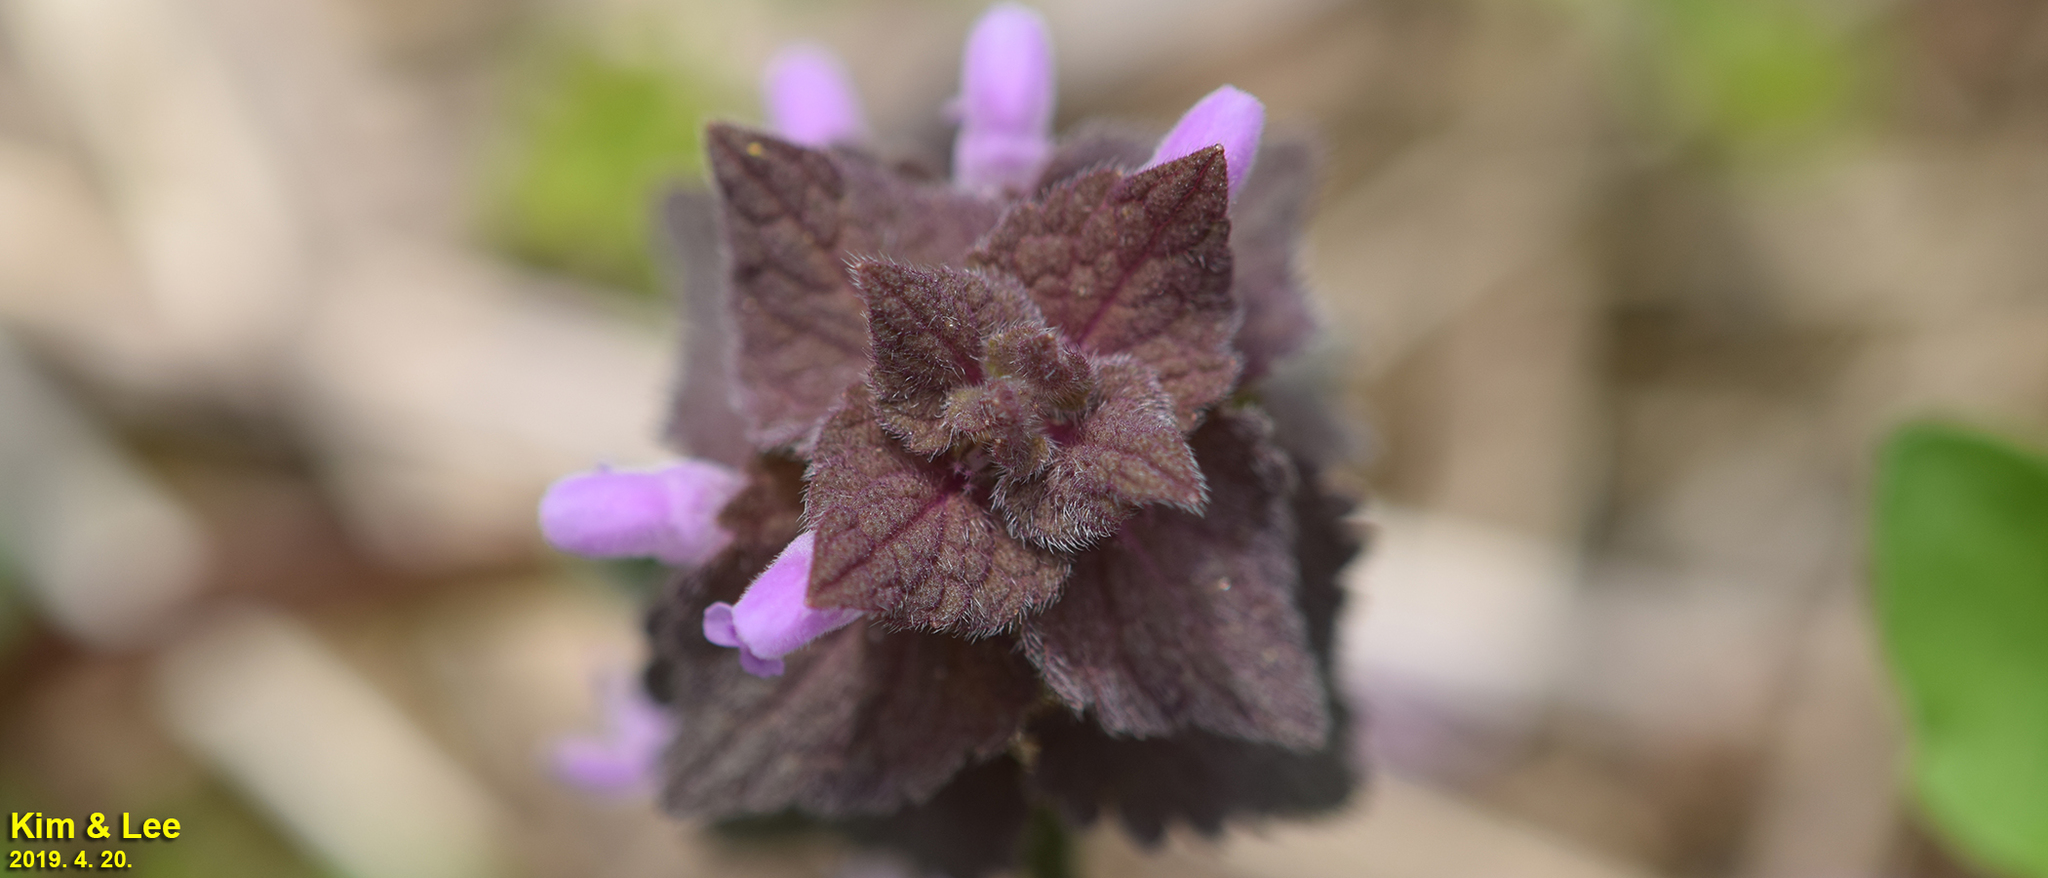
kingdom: Plantae
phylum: Tracheophyta
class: Magnoliopsida
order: Lamiales
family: Lamiaceae
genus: Lamium
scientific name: Lamium purpureum
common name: Red dead-nettle
